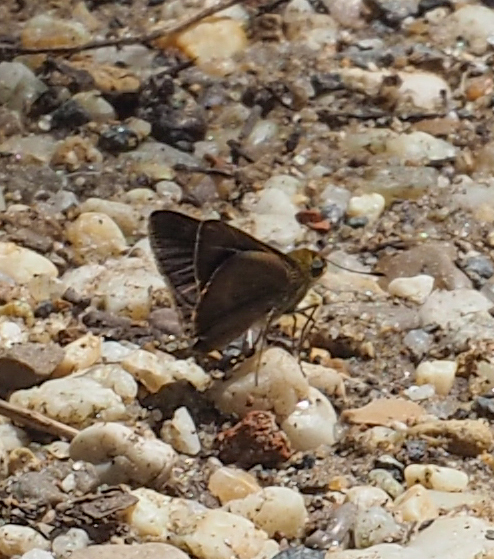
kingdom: Animalia
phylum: Arthropoda
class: Insecta
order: Lepidoptera
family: Hesperiidae
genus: Euphyes
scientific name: Euphyes vestris
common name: Dun skipper
